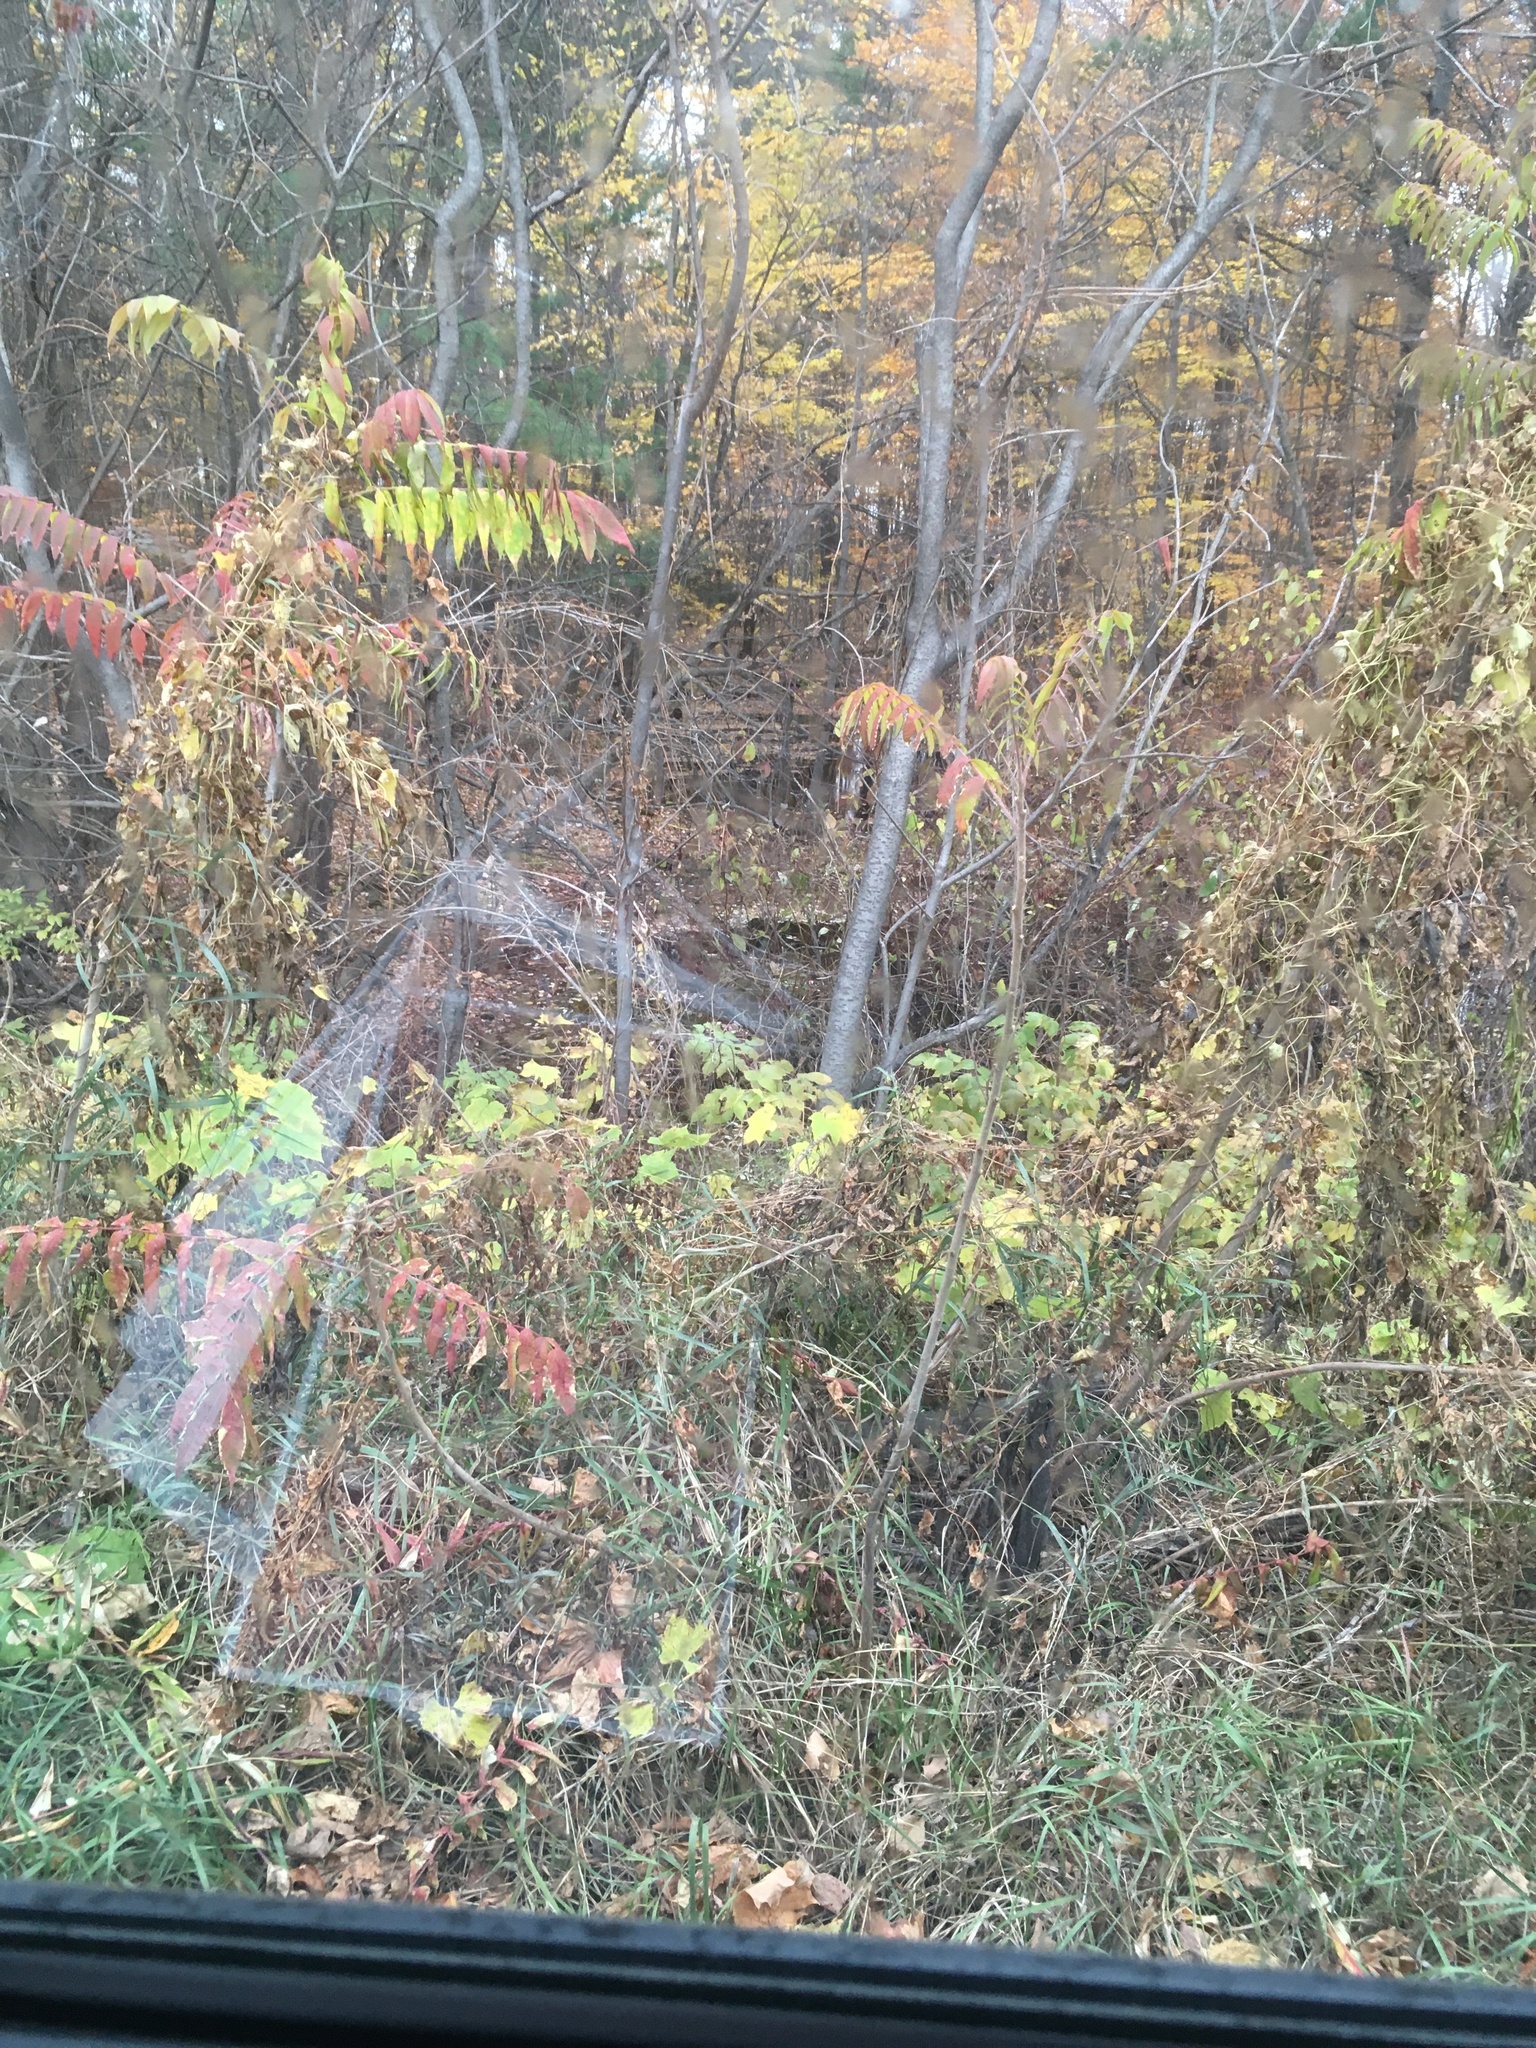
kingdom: Plantae
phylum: Tracheophyta
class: Magnoliopsida
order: Sapindales
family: Anacardiaceae
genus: Rhus
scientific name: Rhus typhina
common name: Staghorn sumac
